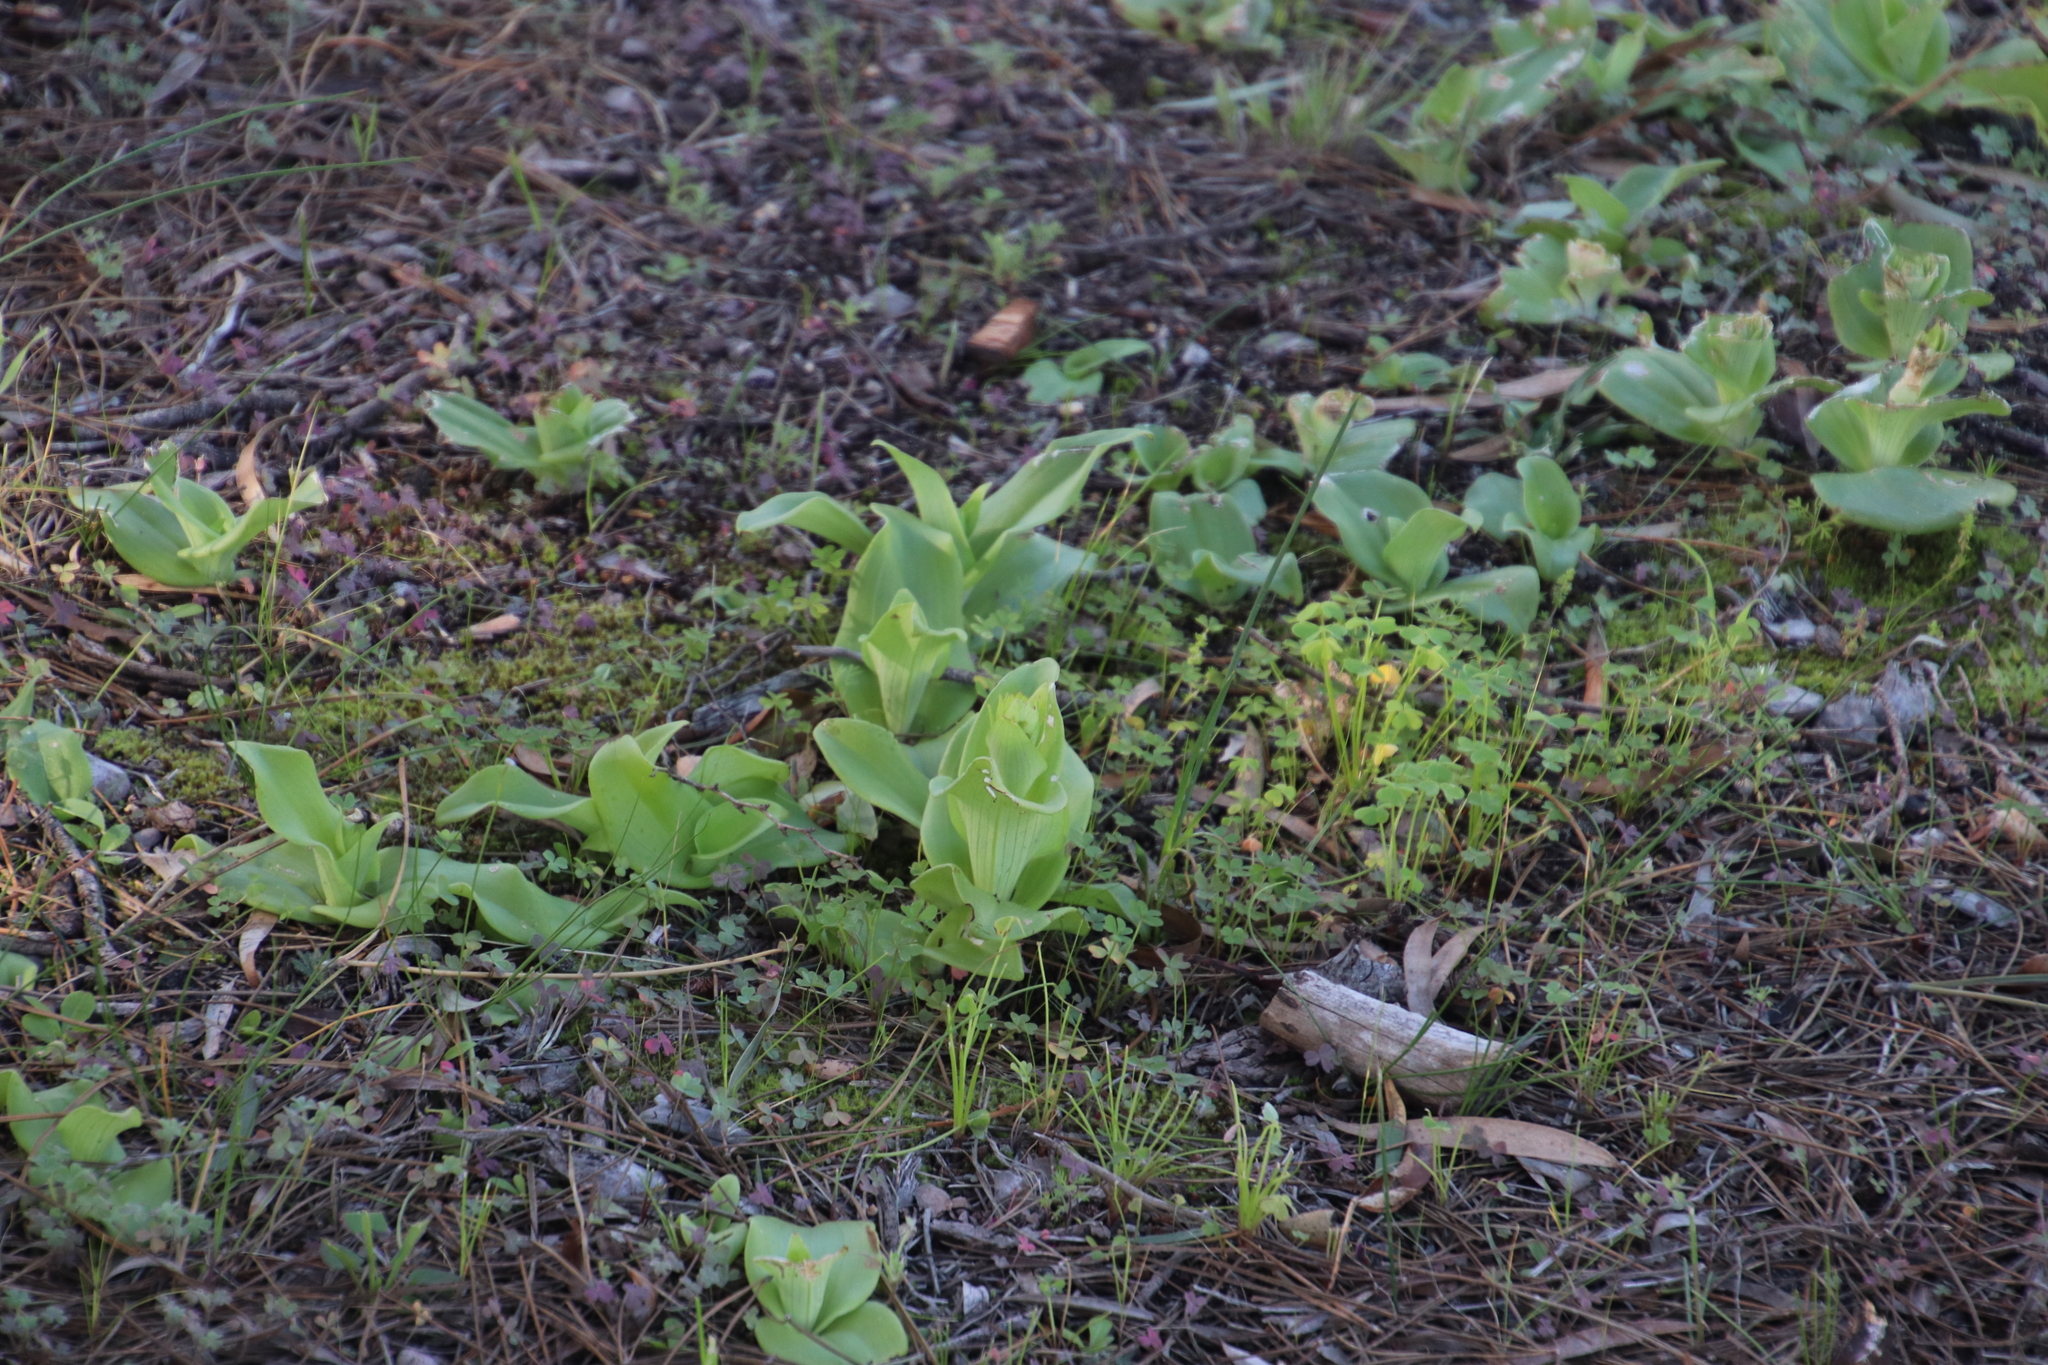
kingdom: Plantae
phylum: Tracheophyta
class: Liliopsida
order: Asparagales
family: Orchidaceae
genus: Satyrium
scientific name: Satyrium odorum
